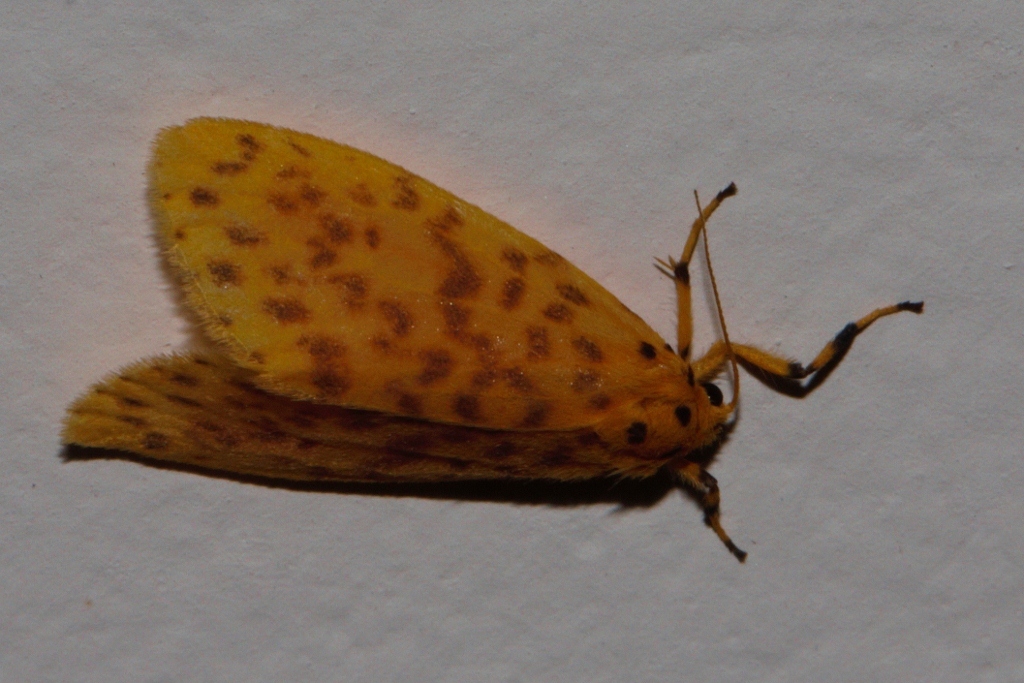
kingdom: Animalia
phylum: Arthropoda
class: Insecta
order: Lepidoptera
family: Erebidae
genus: Afrasura
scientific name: Afrasura rivulosa
